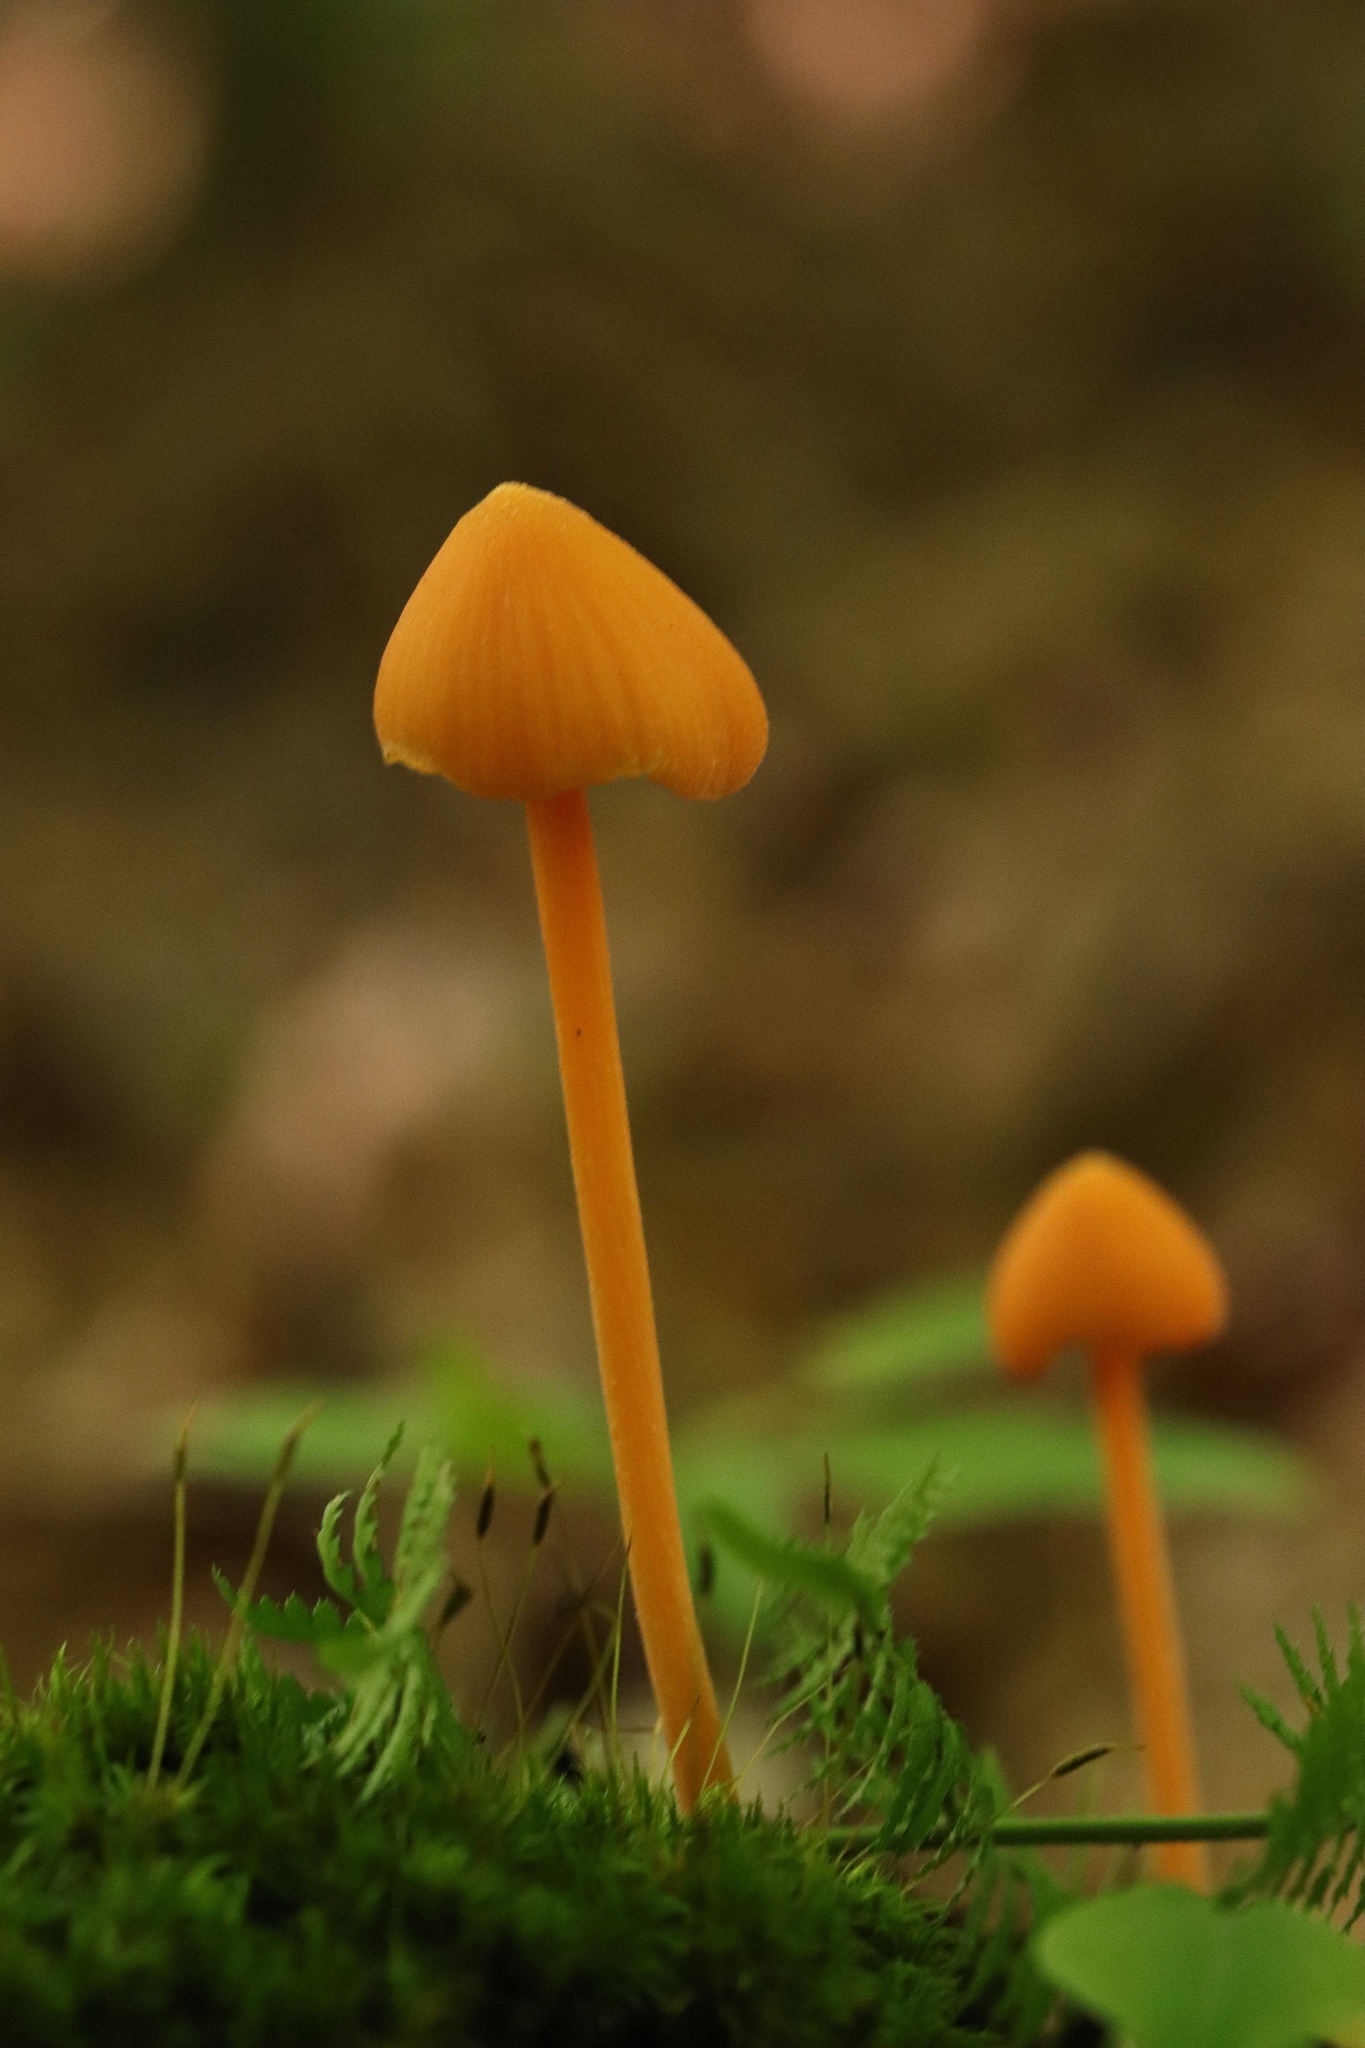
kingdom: Fungi
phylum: Basidiomycota
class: Agaricomycetes
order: Agaricales
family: Entolomataceae
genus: Entoloma
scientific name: Entoloma quadratum
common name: Salmon pinkgill
